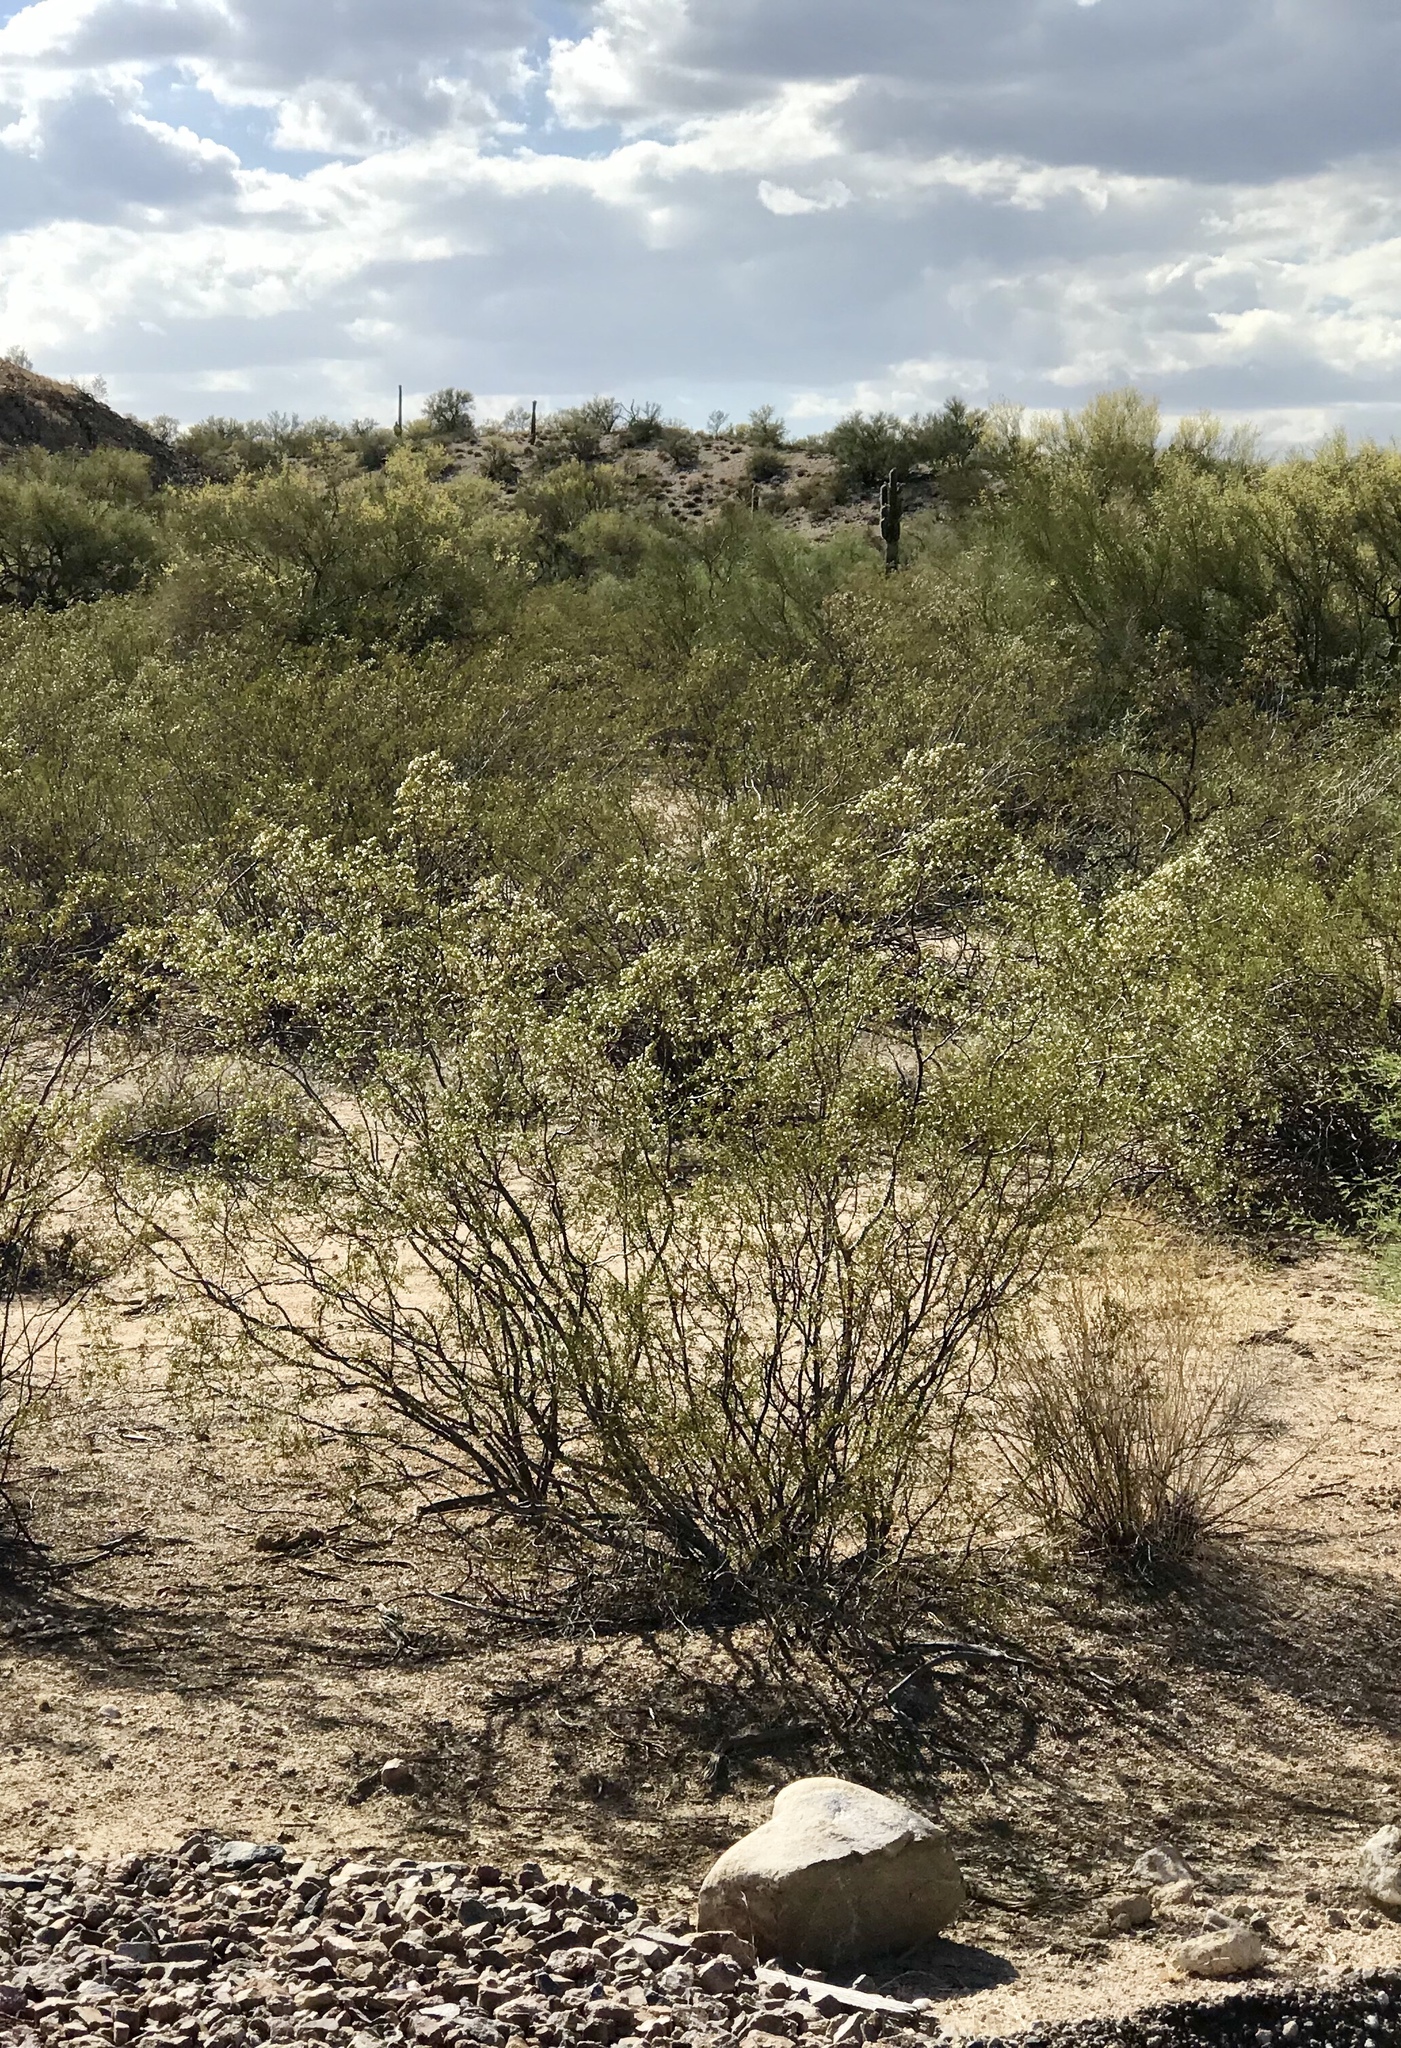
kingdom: Plantae
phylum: Tracheophyta
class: Magnoliopsida
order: Zygophyllales
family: Zygophyllaceae
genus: Larrea
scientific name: Larrea tridentata
